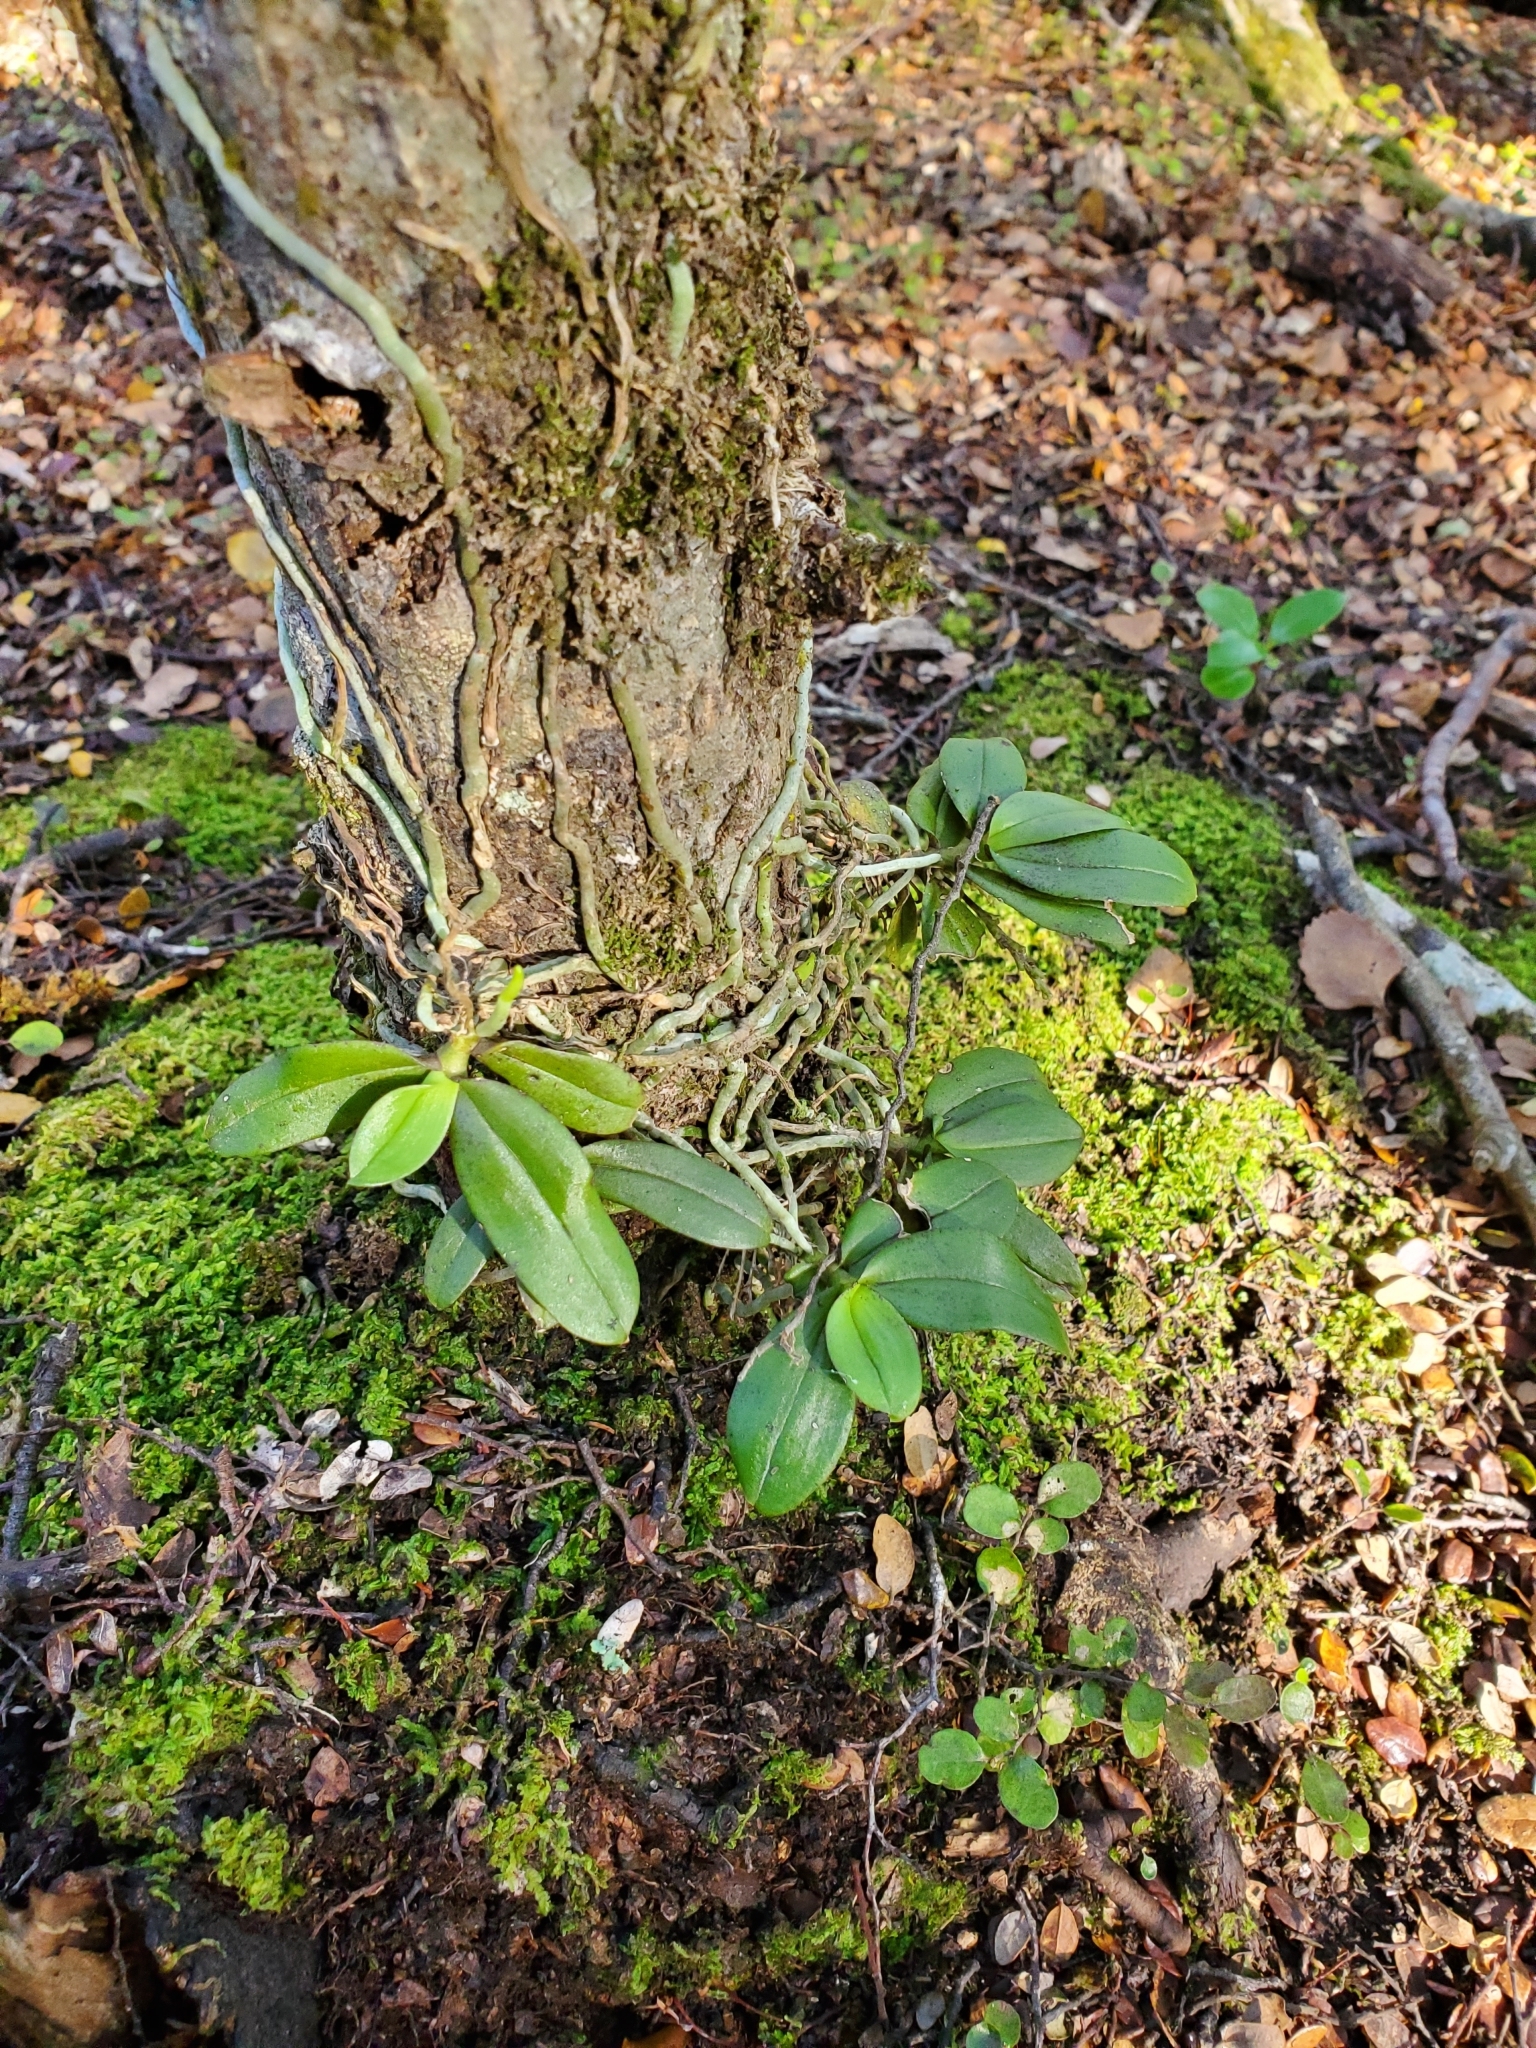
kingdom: Plantae
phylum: Tracheophyta
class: Liliopsida
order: Asparagales
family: Orchidaceae
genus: Drymoanthus
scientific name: Drymoanthus adversus
